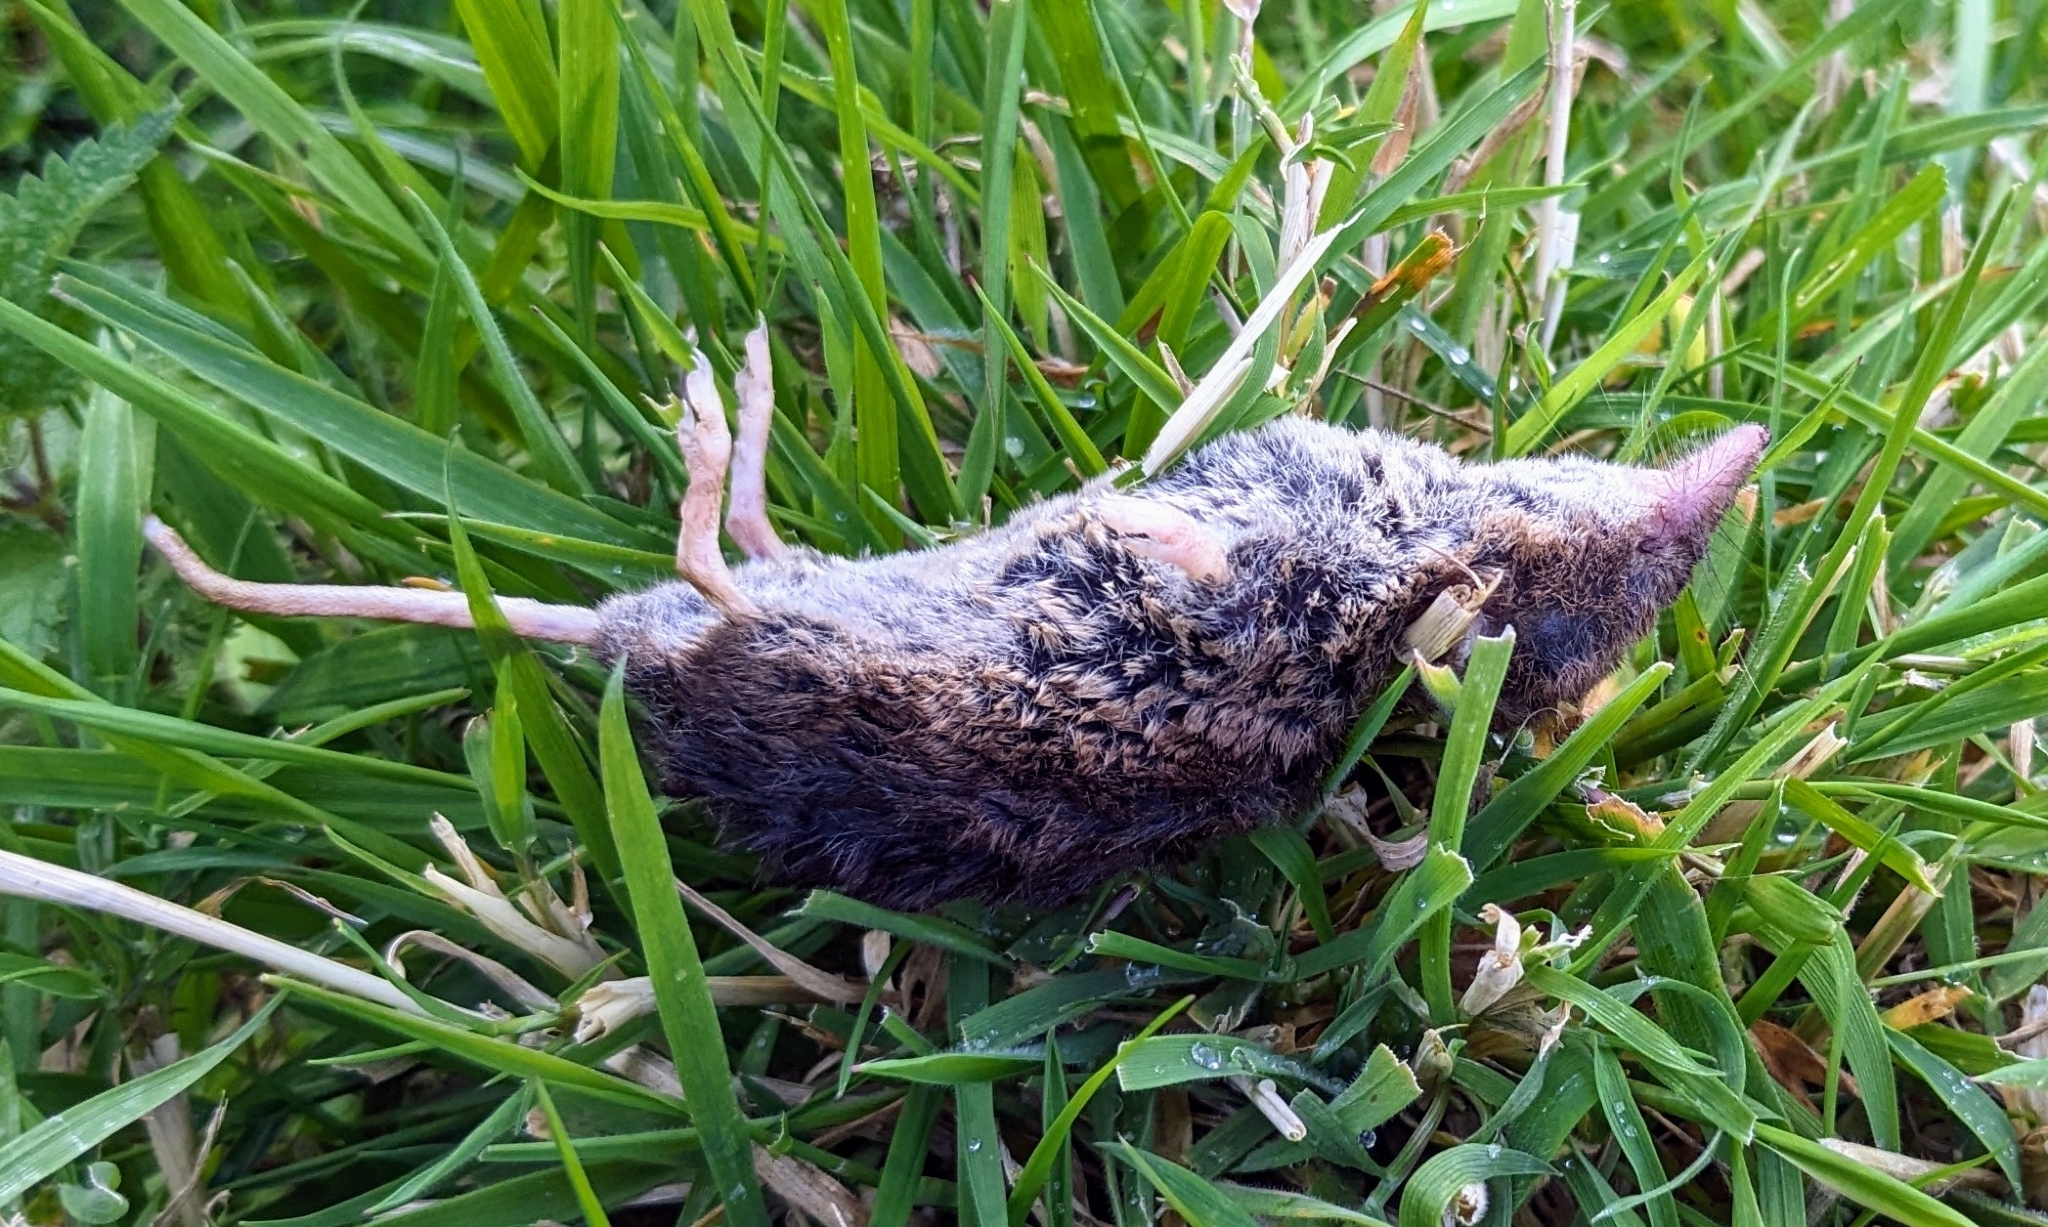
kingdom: Animalia
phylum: Chordata
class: Mammalia
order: Soricomorpha
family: Soricidae
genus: Sorex
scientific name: Sorex araneus
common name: Common shrew
